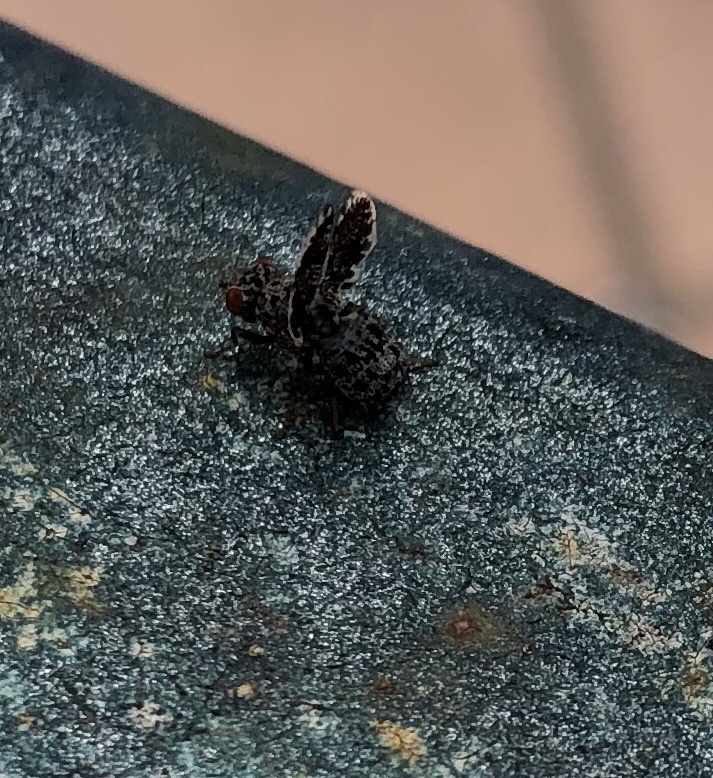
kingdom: Animalia
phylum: Arthropoda
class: Insecta
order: Diptera
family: Ulidiidae
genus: Callopistromyia
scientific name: Callopistromyia annulipes
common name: Peacock fly
